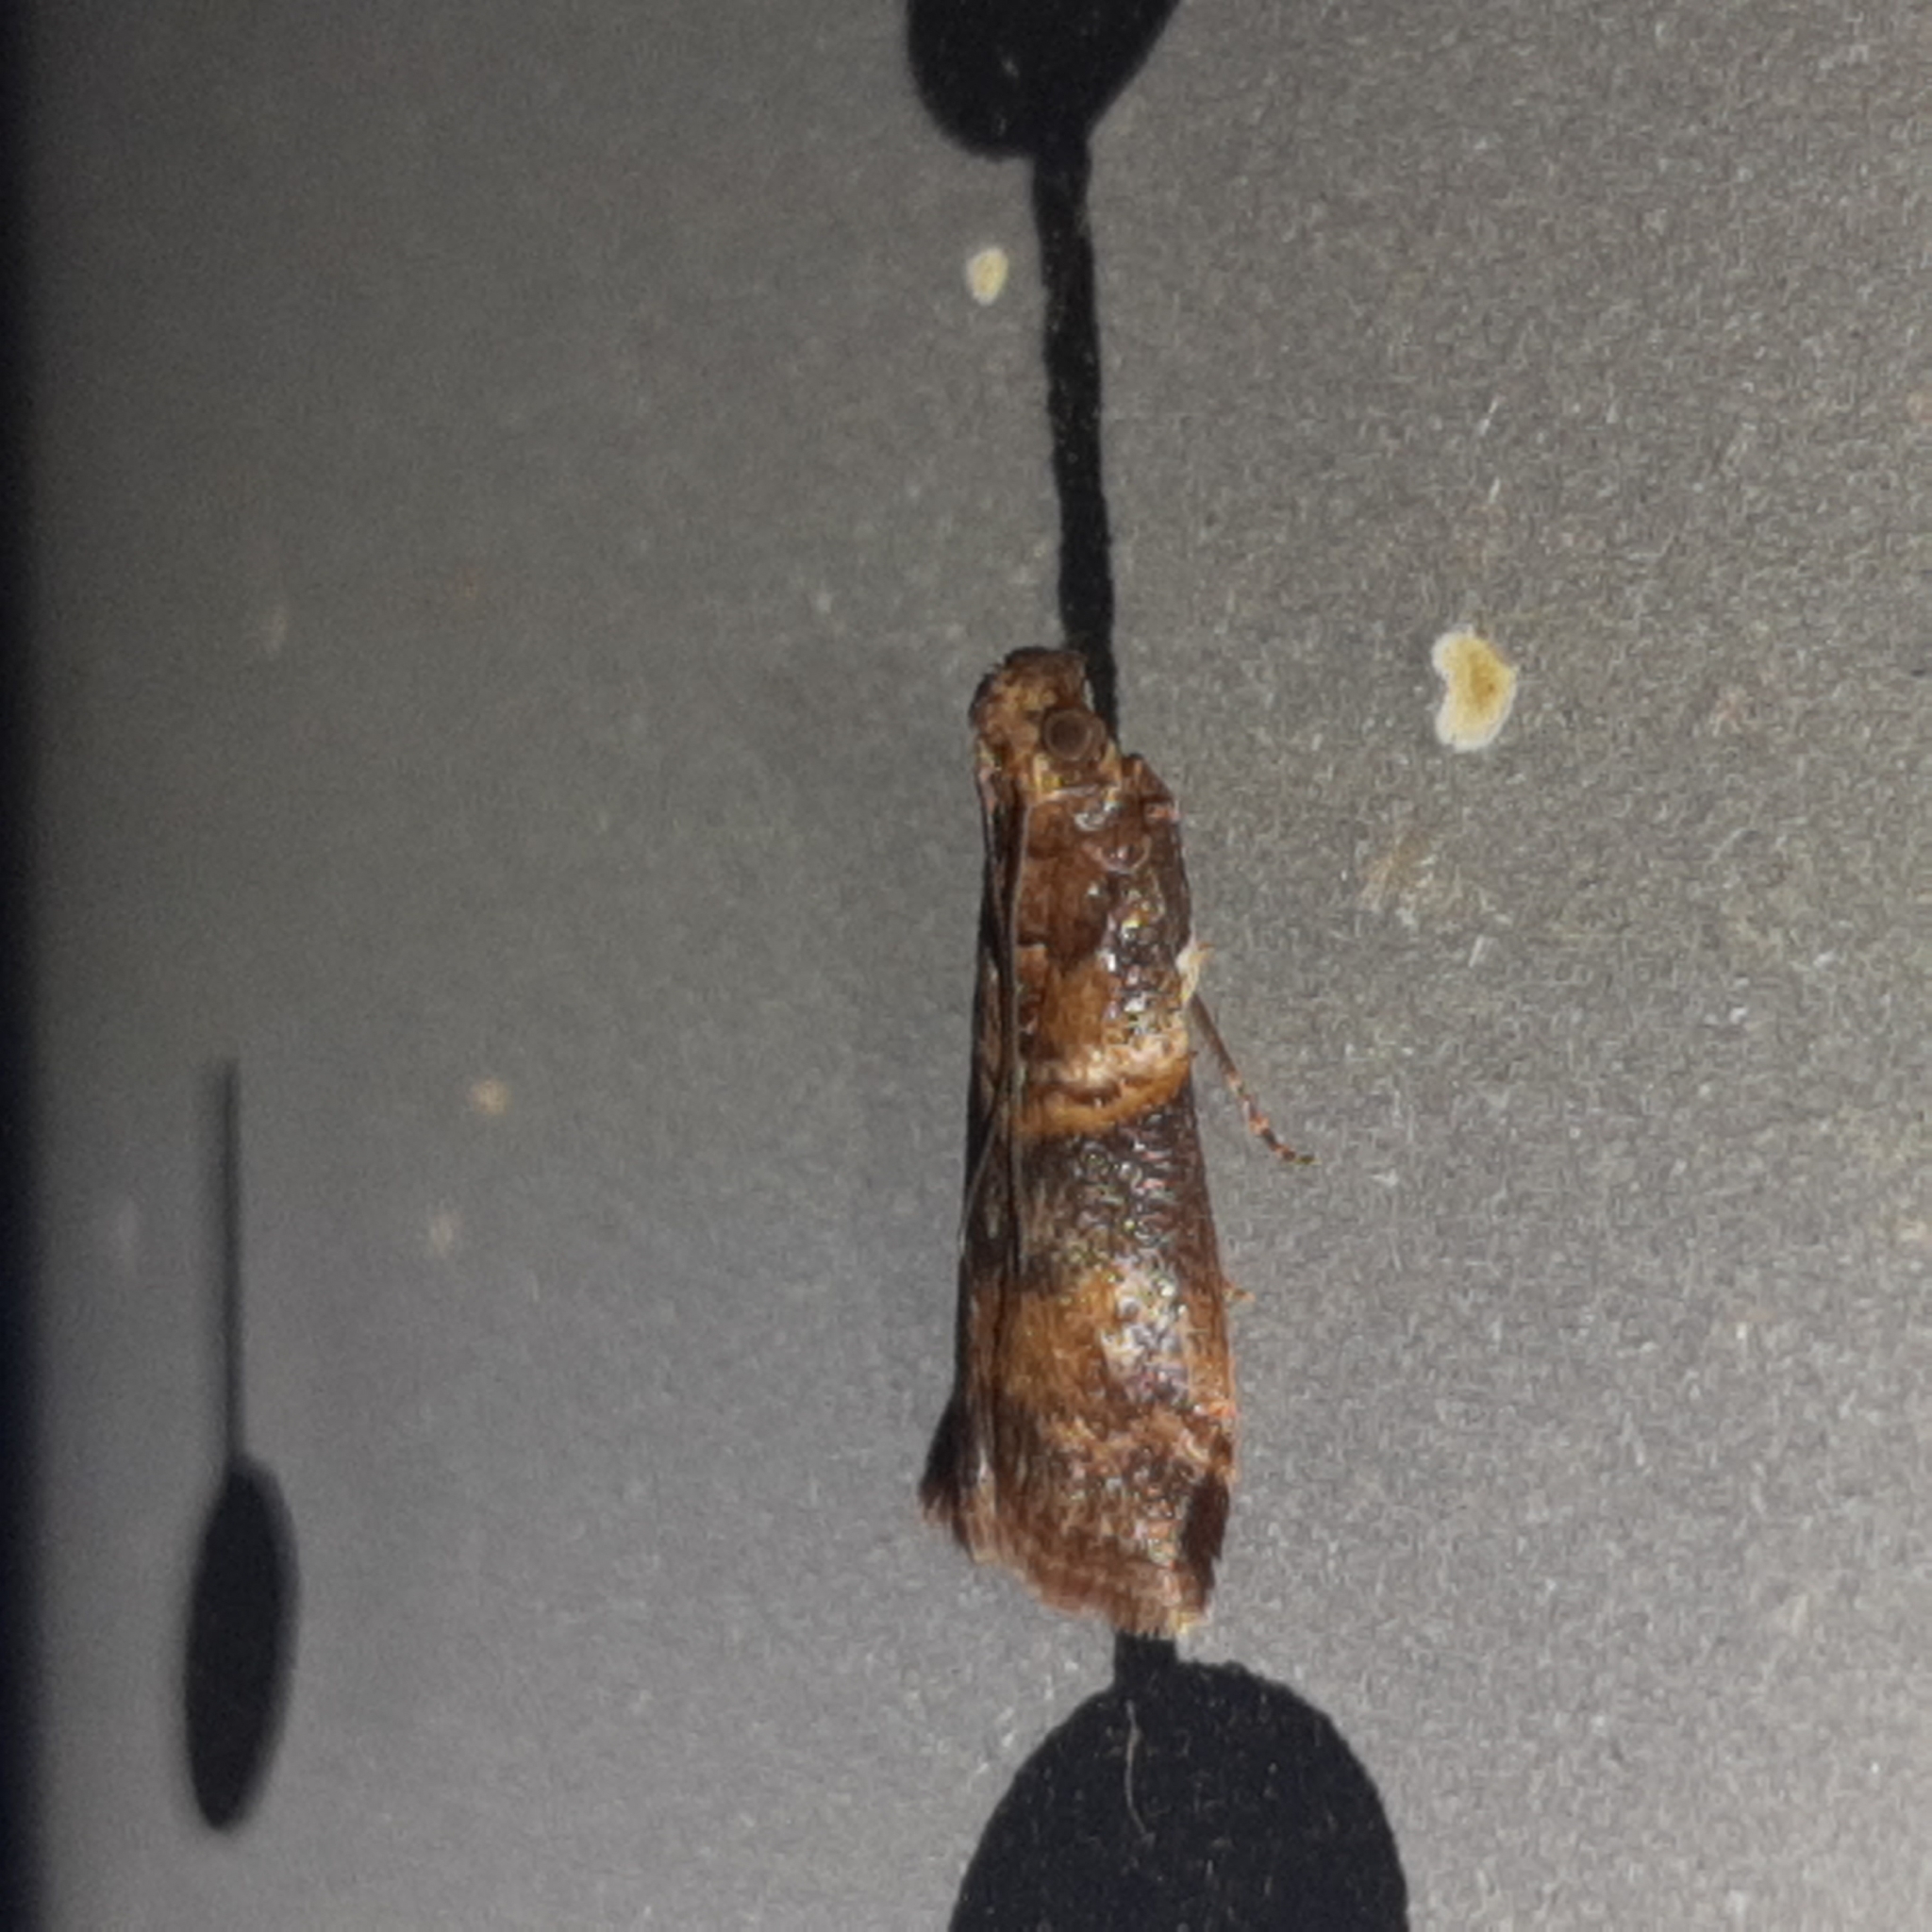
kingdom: Animalia
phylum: Arthropoda
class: Insecta
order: Lepidoptera
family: Pyralidae
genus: Davara
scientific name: Davara caricae
